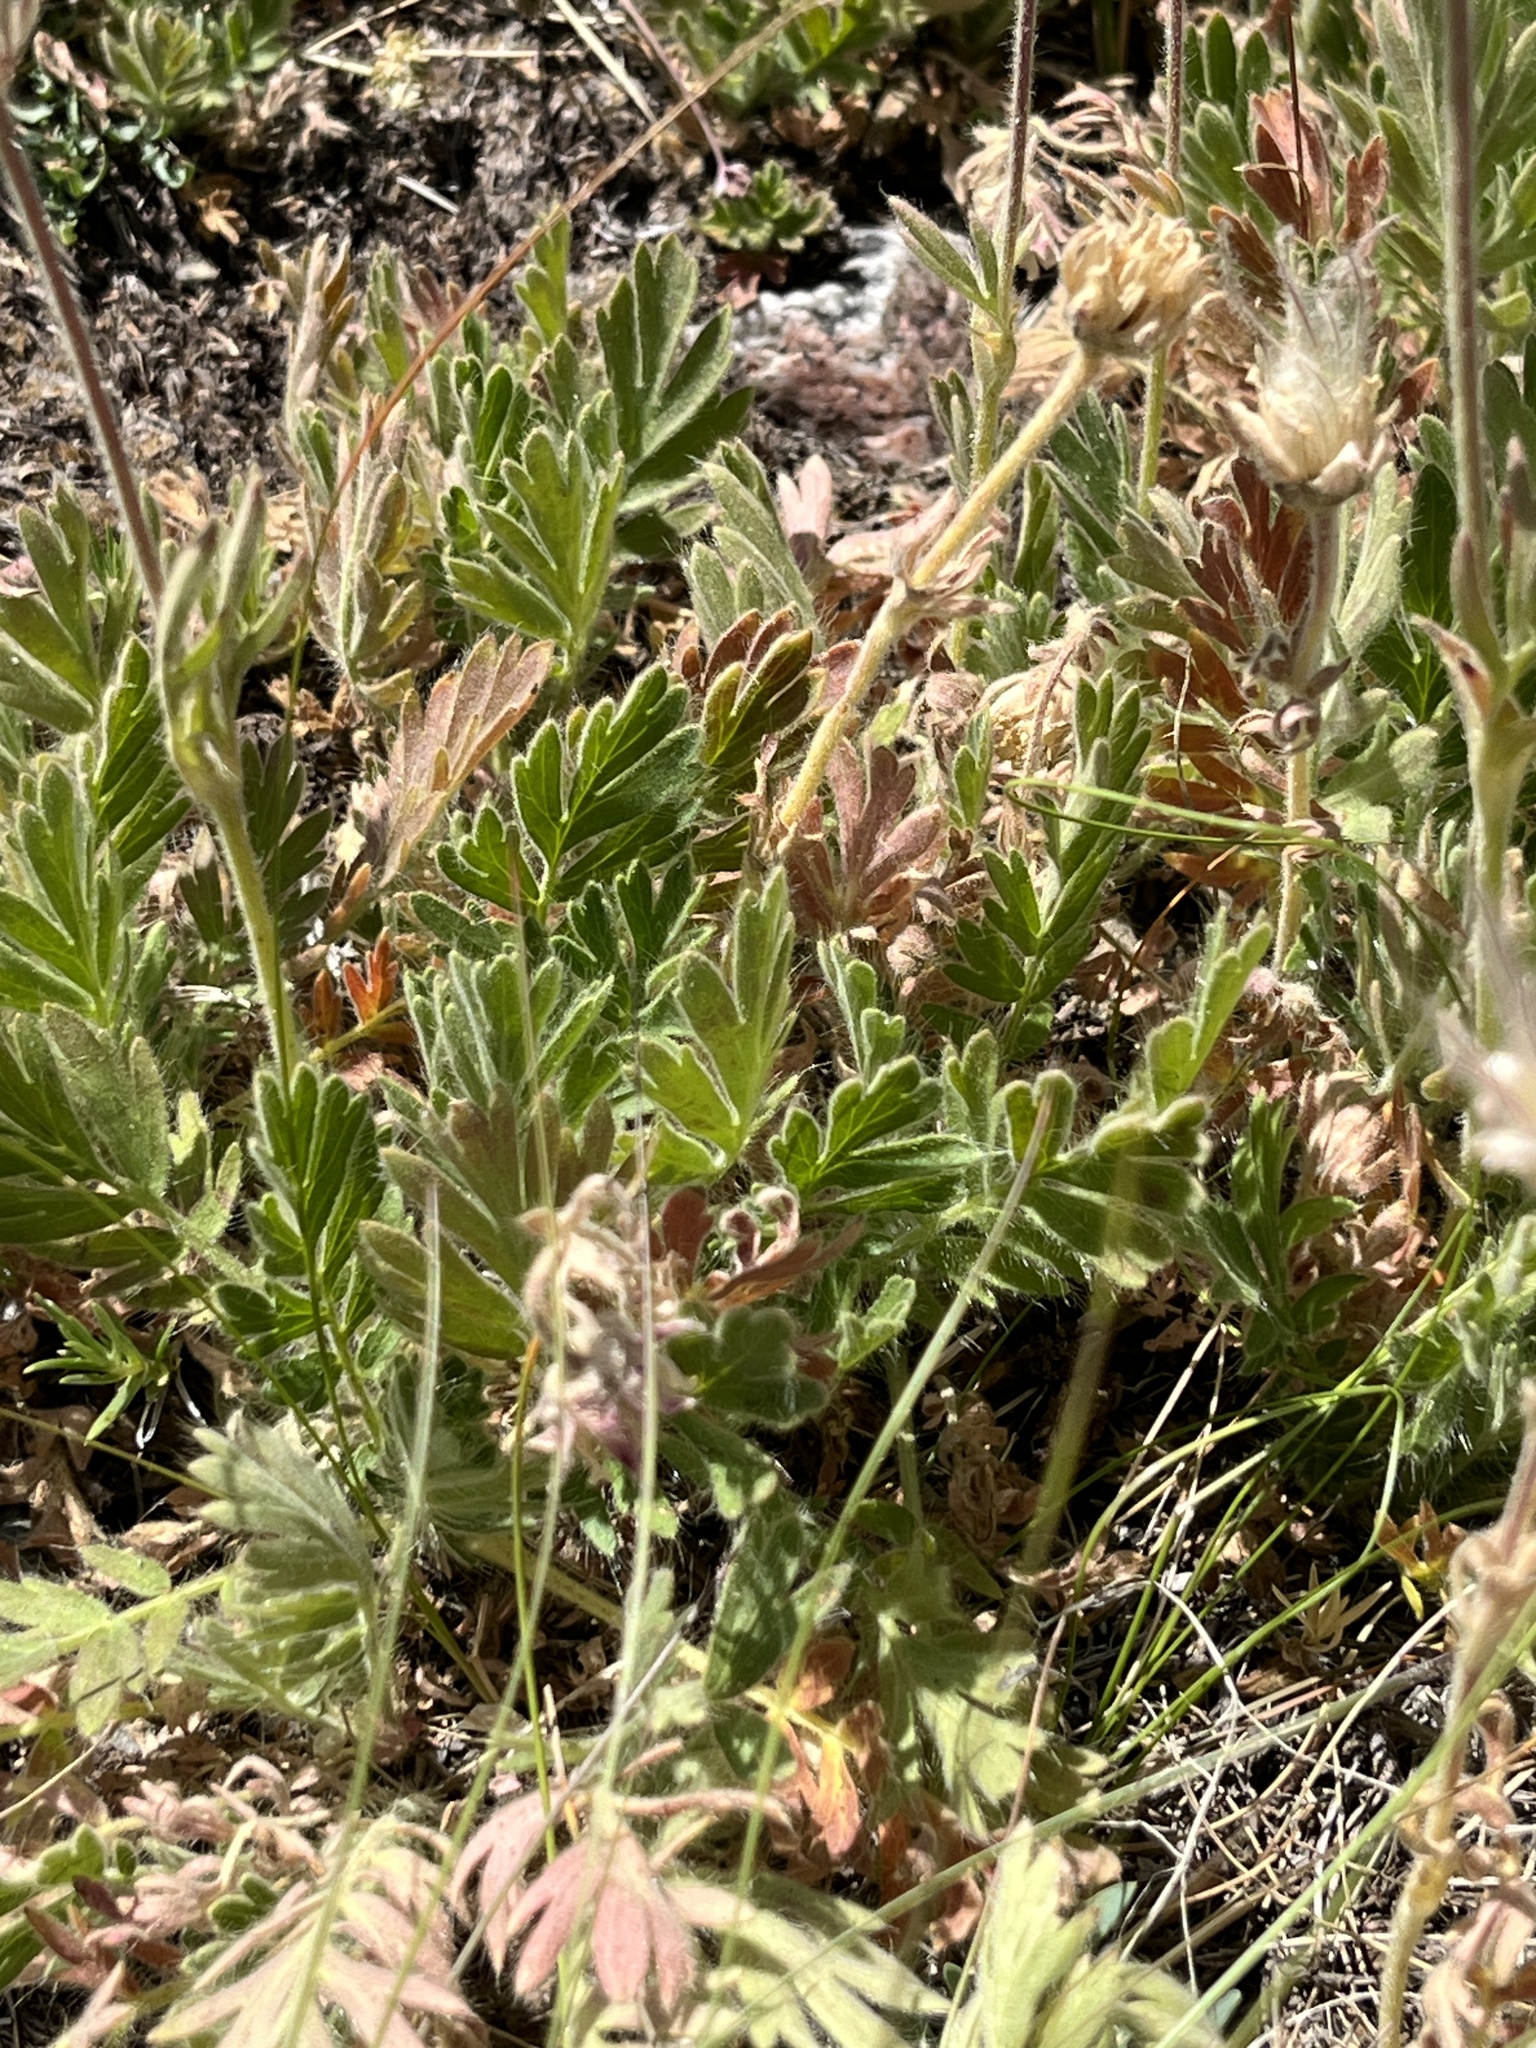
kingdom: Plantae
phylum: Tracheophyta
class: Magnoliopsida
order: Rosales
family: Rosaceae
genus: Geum
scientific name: Geum triflorum
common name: Old man's whiskers
